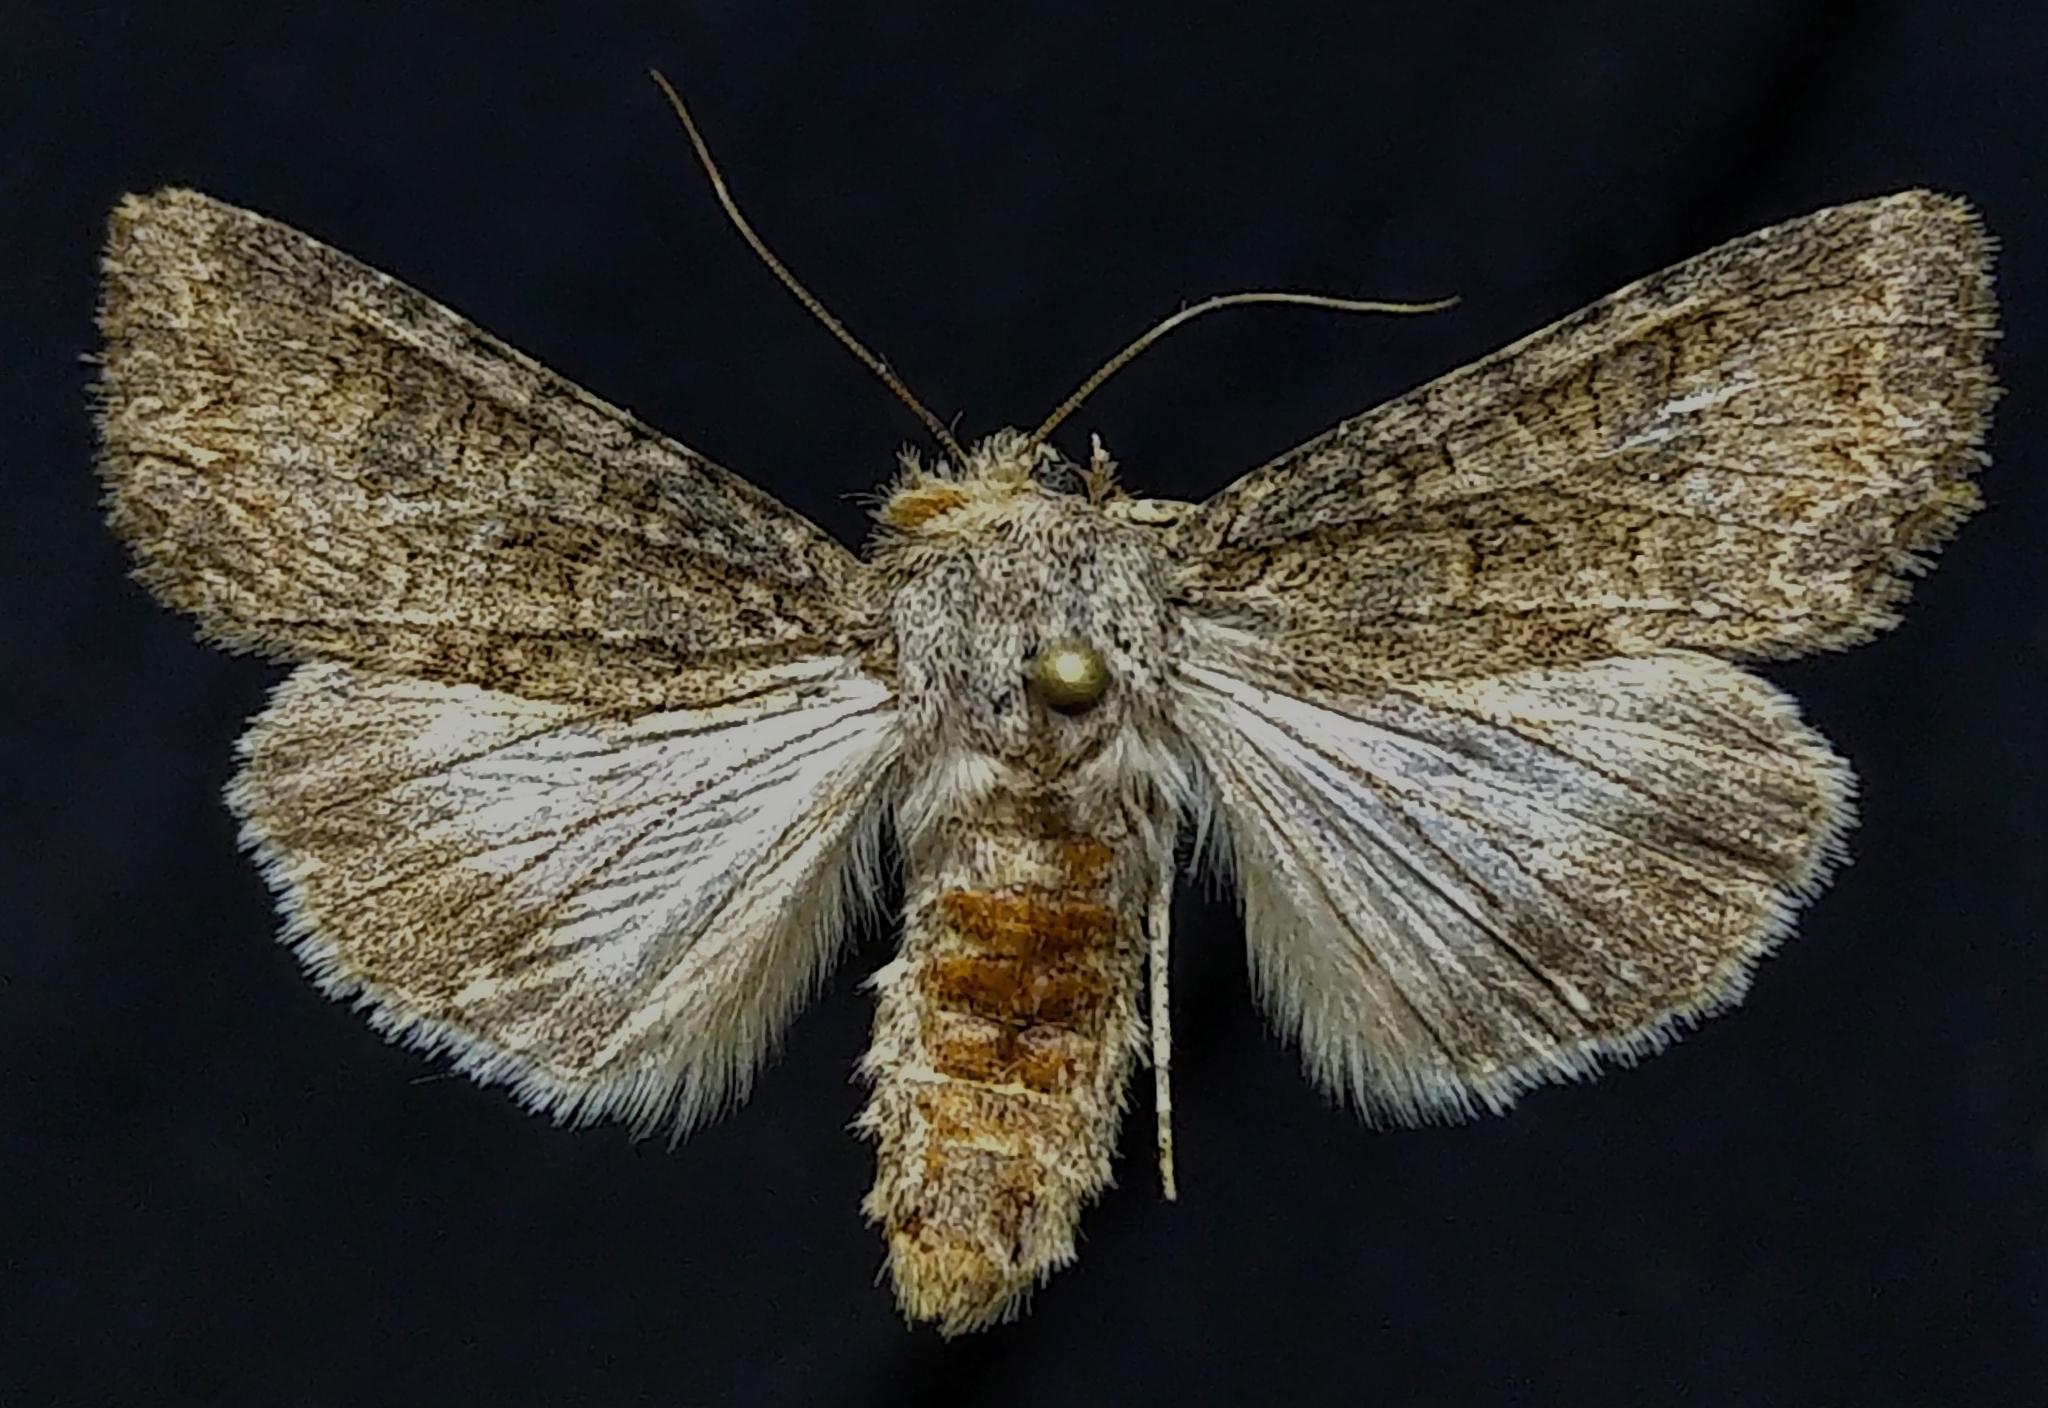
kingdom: Animalia
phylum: Arthropoda
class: Insecta
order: Lepidoptera
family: Noctuidae
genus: Anarta
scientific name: Anarta trifolii
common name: Clover cutworm moth
